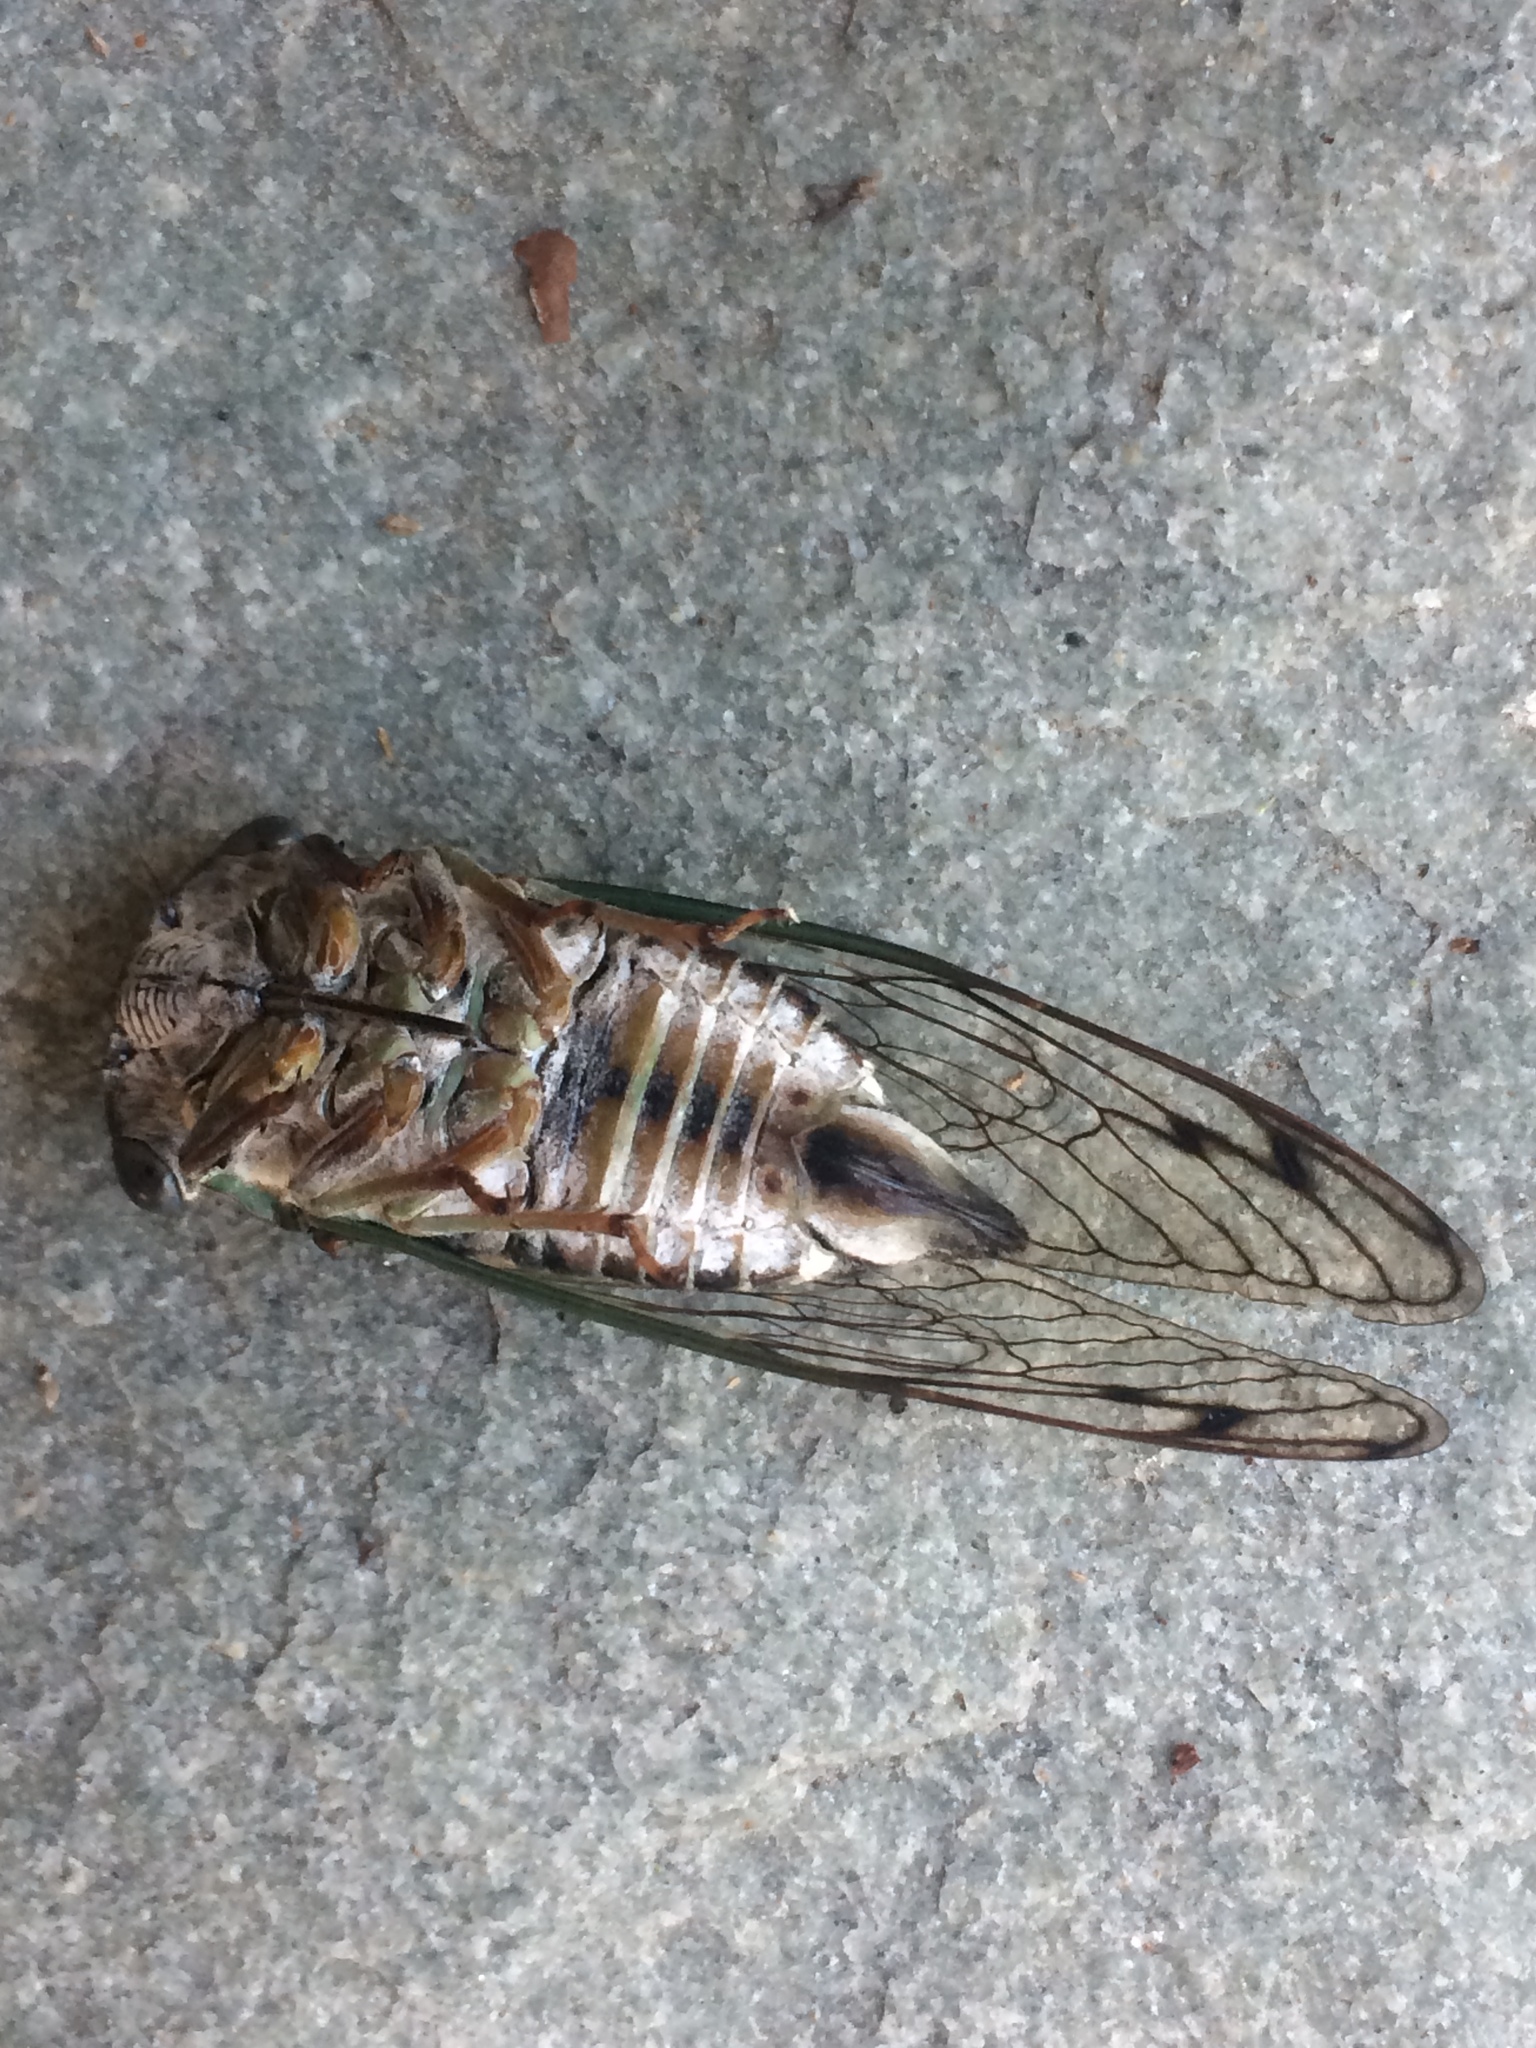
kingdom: Animalia
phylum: Arthropoda
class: Insecta
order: Hemiptera
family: Cicadidae
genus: Neotibicen
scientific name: Neotibicen davisi
